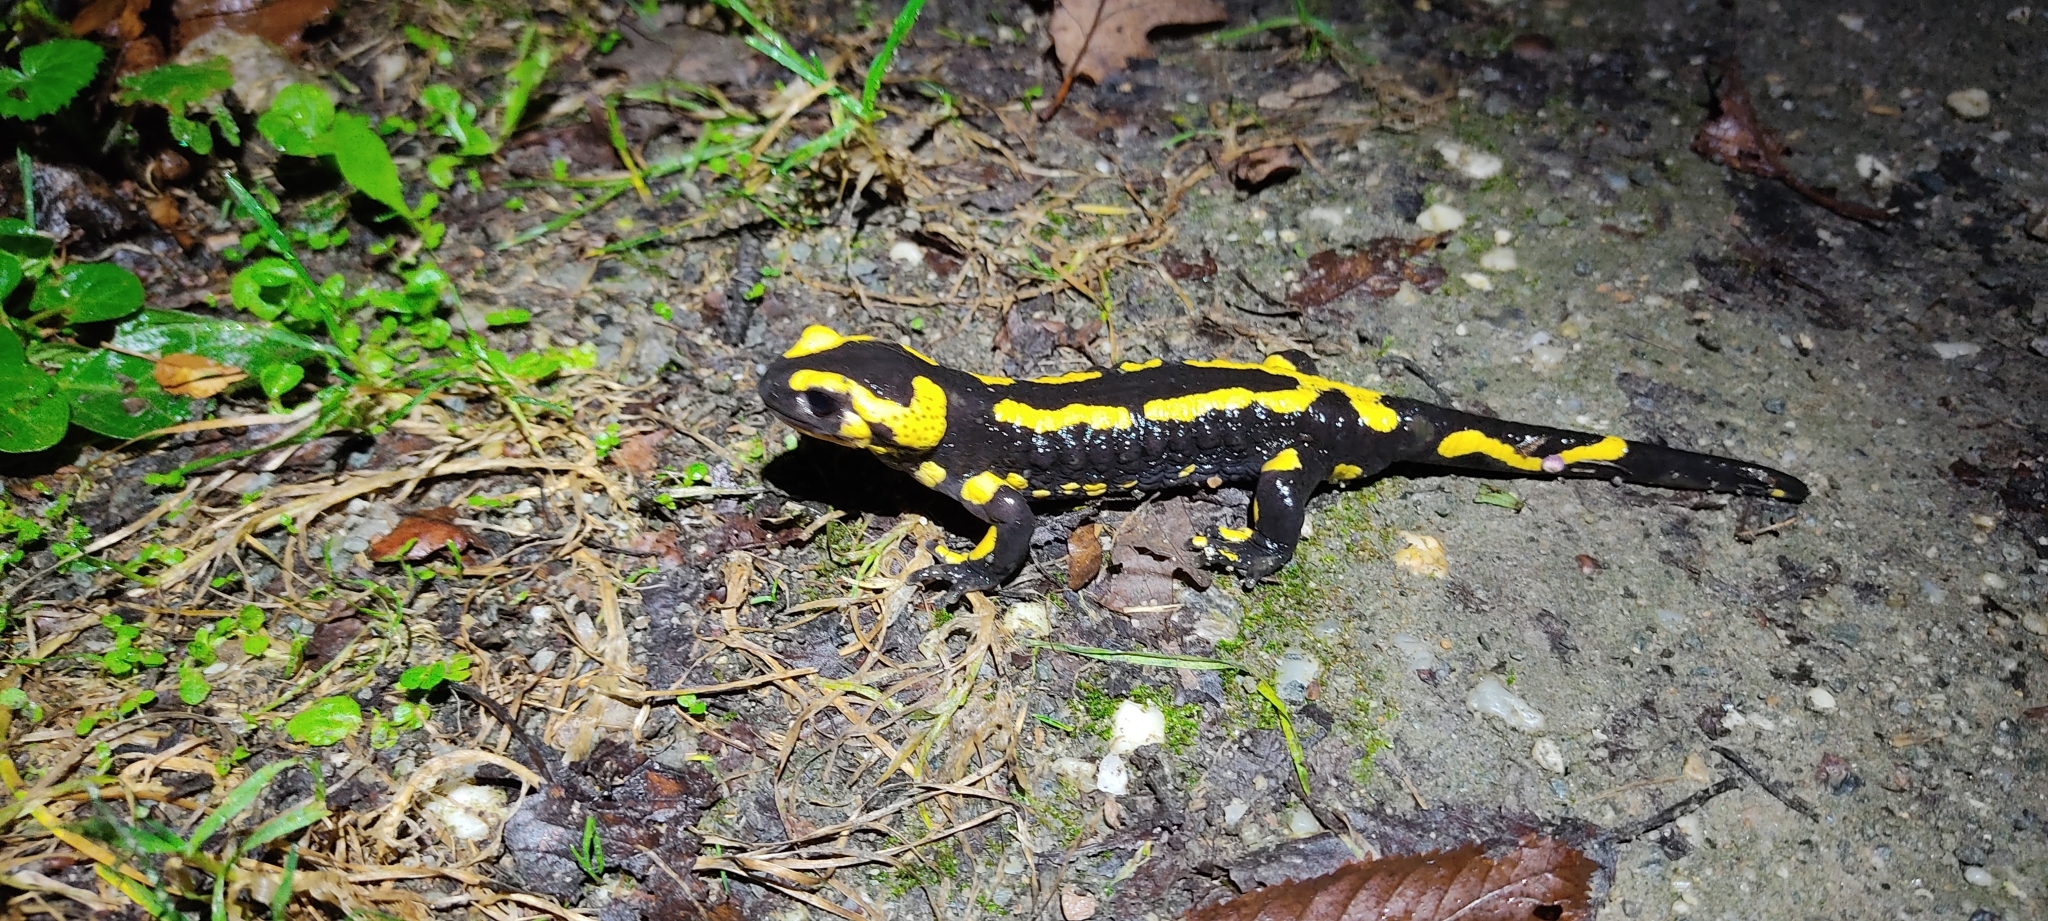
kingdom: Animalia
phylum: Chordata
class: Amphibia
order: Caudata
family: Salamandridae
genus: Salamandra
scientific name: Salamandra salamandra
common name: Fire salamander
